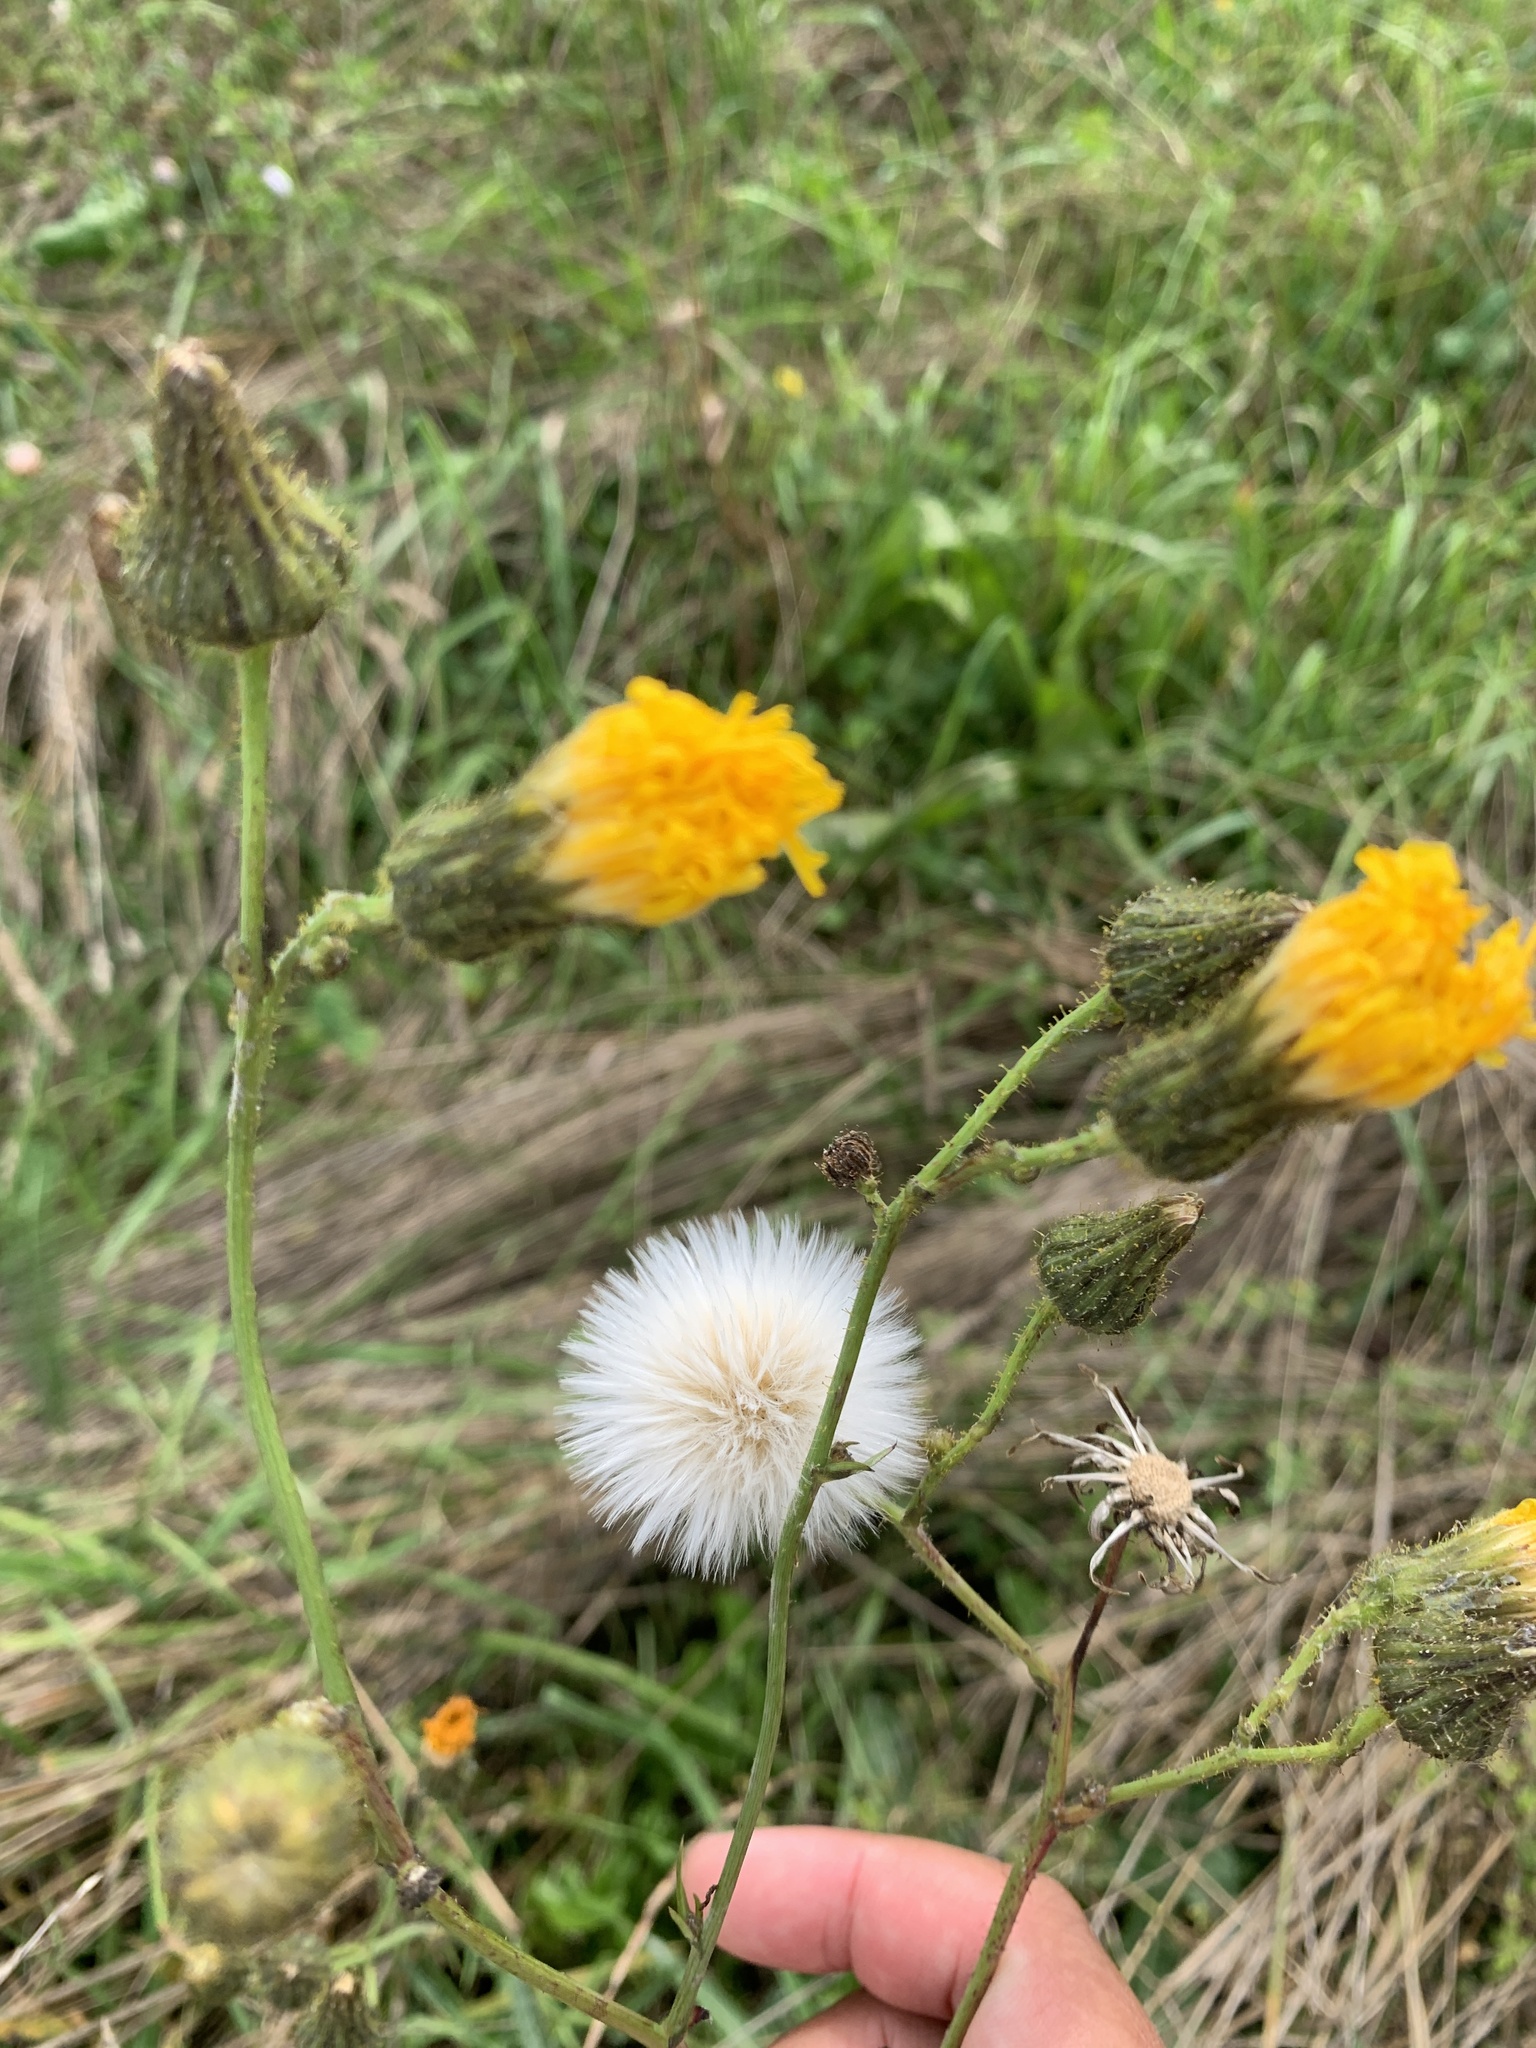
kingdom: Plantae
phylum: Tracheophyta
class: Magnoliopsida
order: Asterales
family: Asteraceae
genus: Sonchus
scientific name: Sonchus arvensis
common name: Perennial sow-thistle
